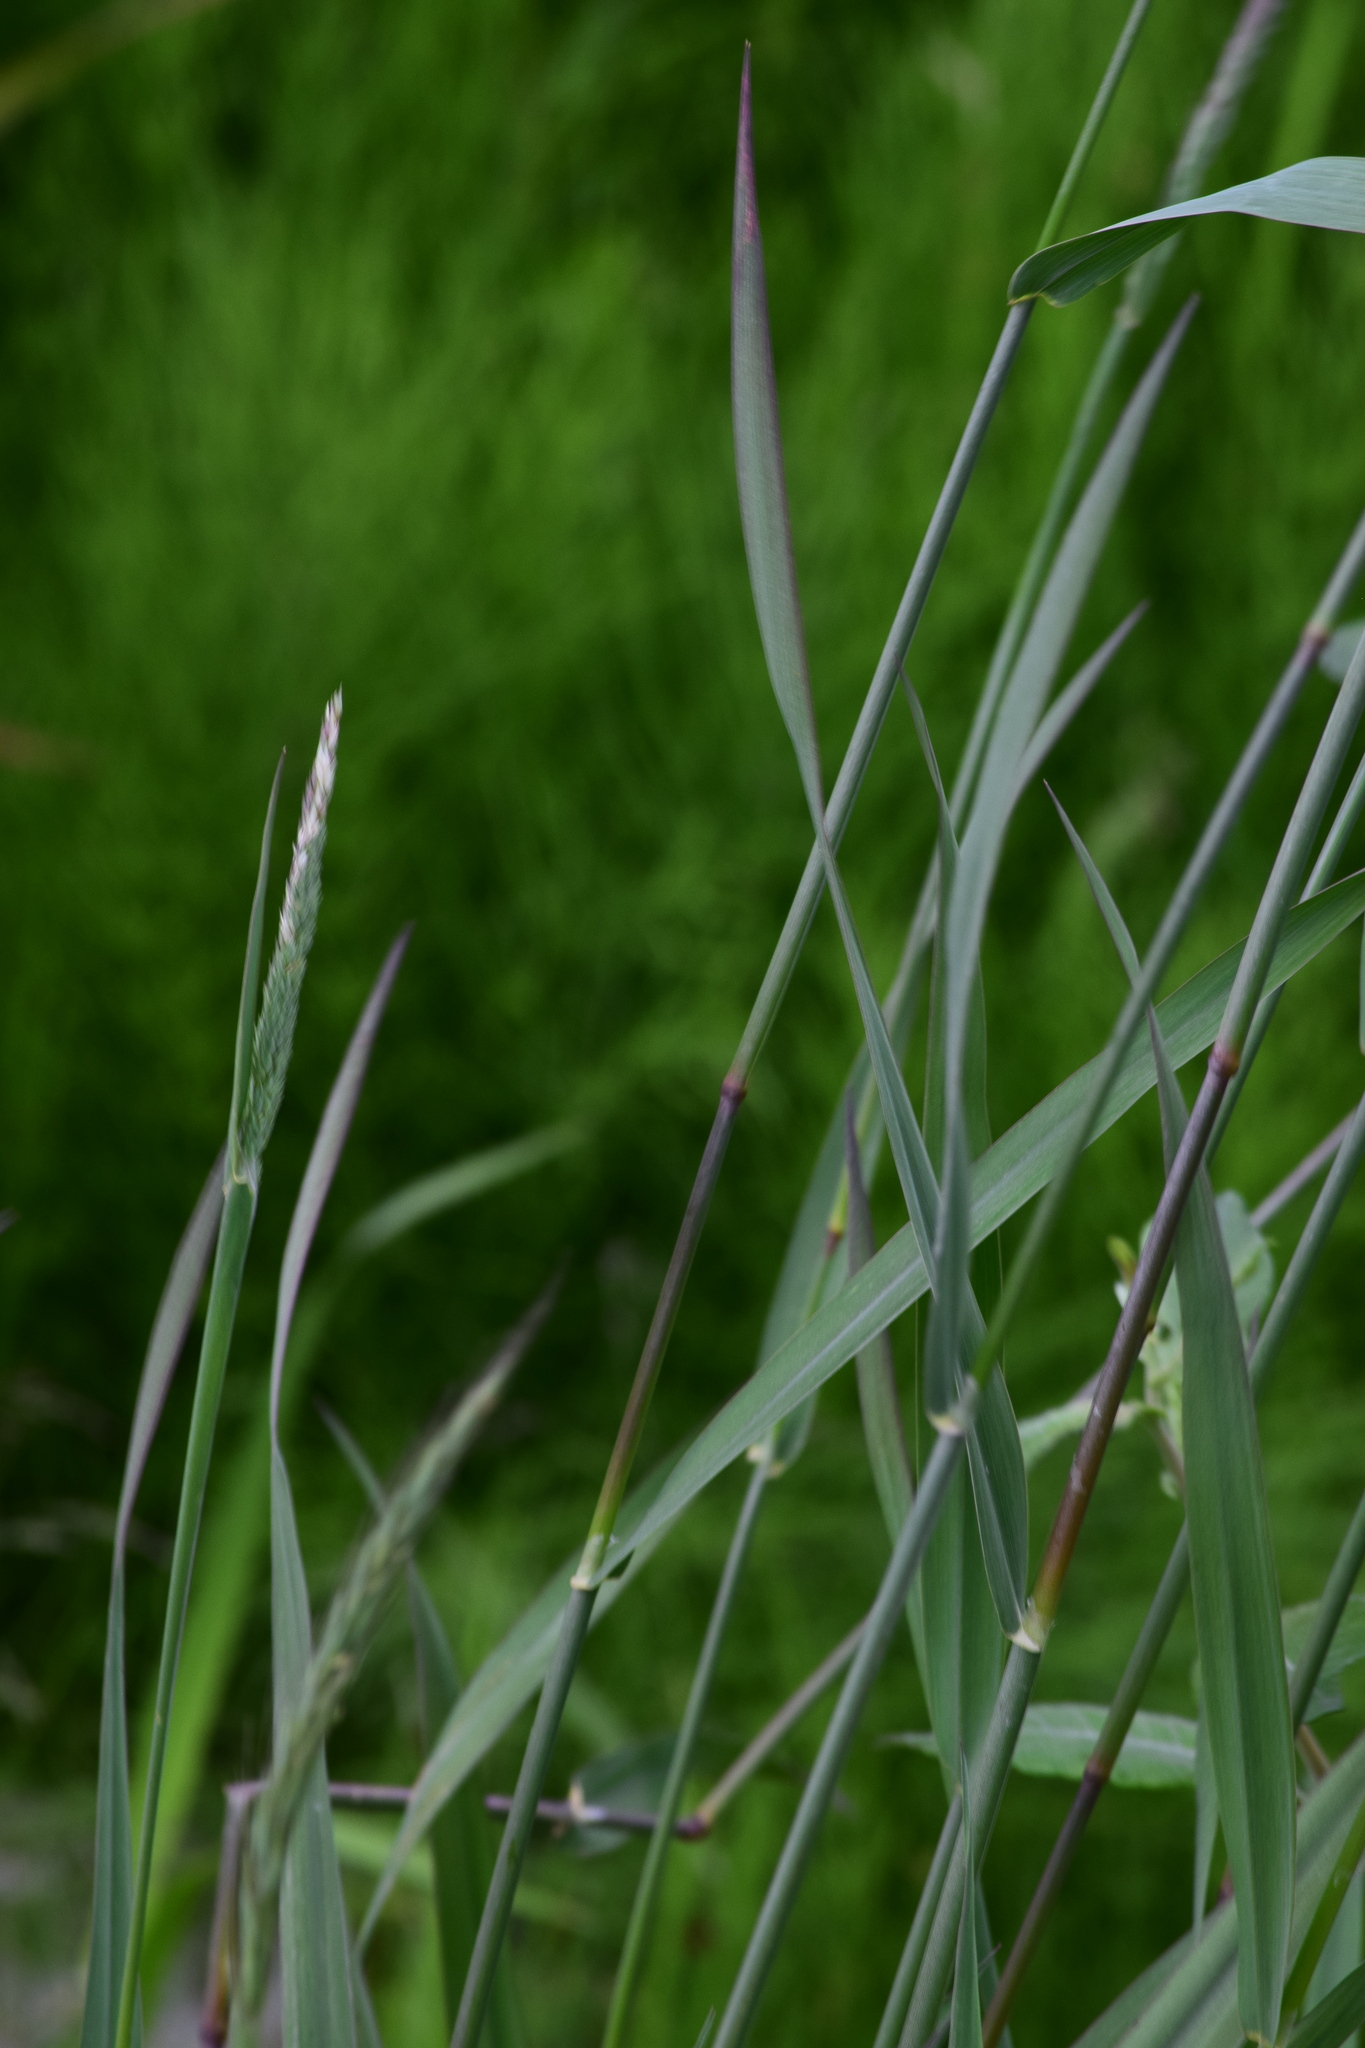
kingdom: Plantae
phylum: Tracheophyta
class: Liliopsida
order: Poales
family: Poaceae
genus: Phalaris
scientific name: Phalaris arundinacea
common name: Reed canary-grass
